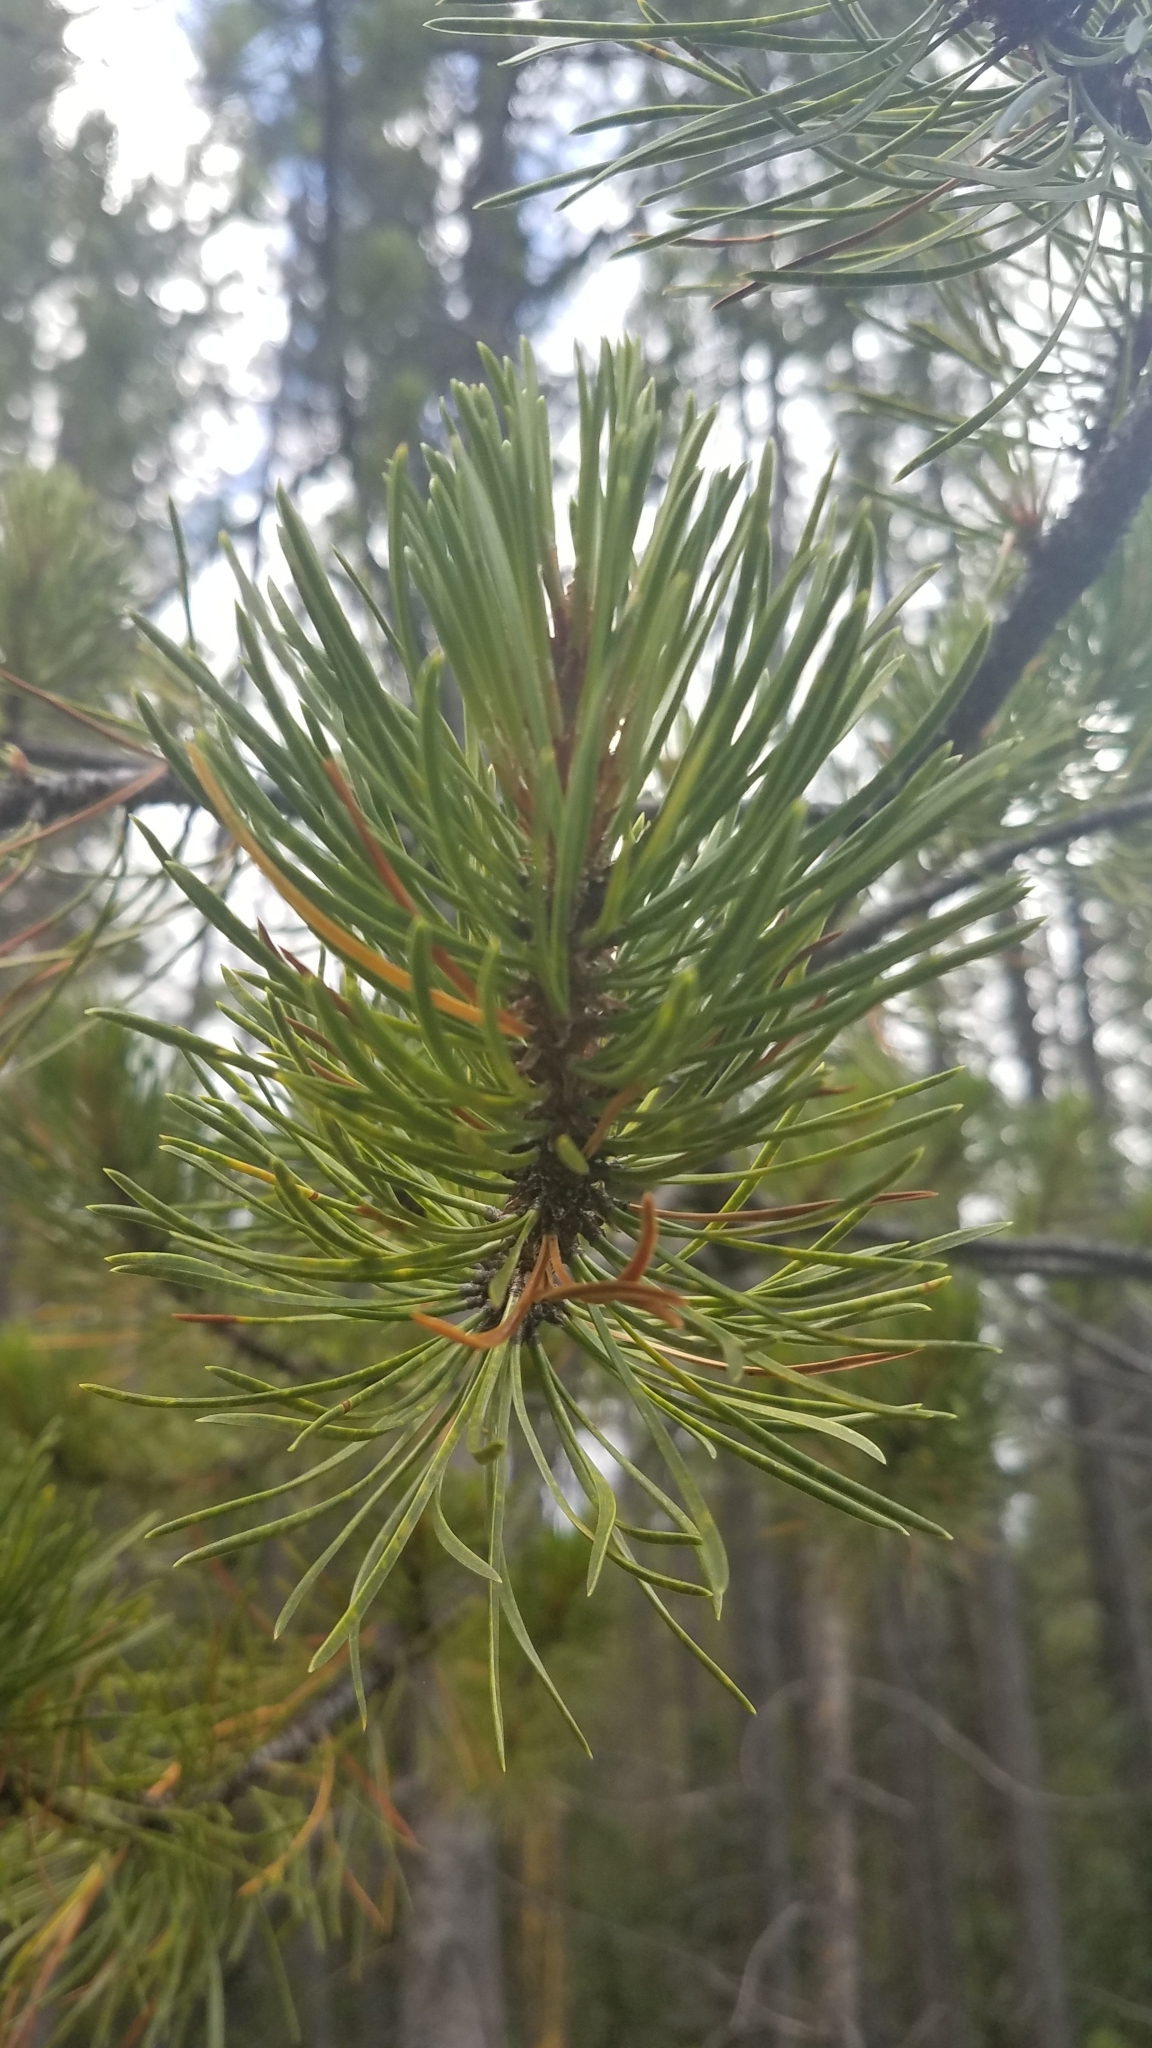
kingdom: Plantae
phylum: Tracheophyta
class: Pinopsida
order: Pinales
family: Pinaceae
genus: Pinus
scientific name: Pinus contorta
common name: Lodgepole pine
